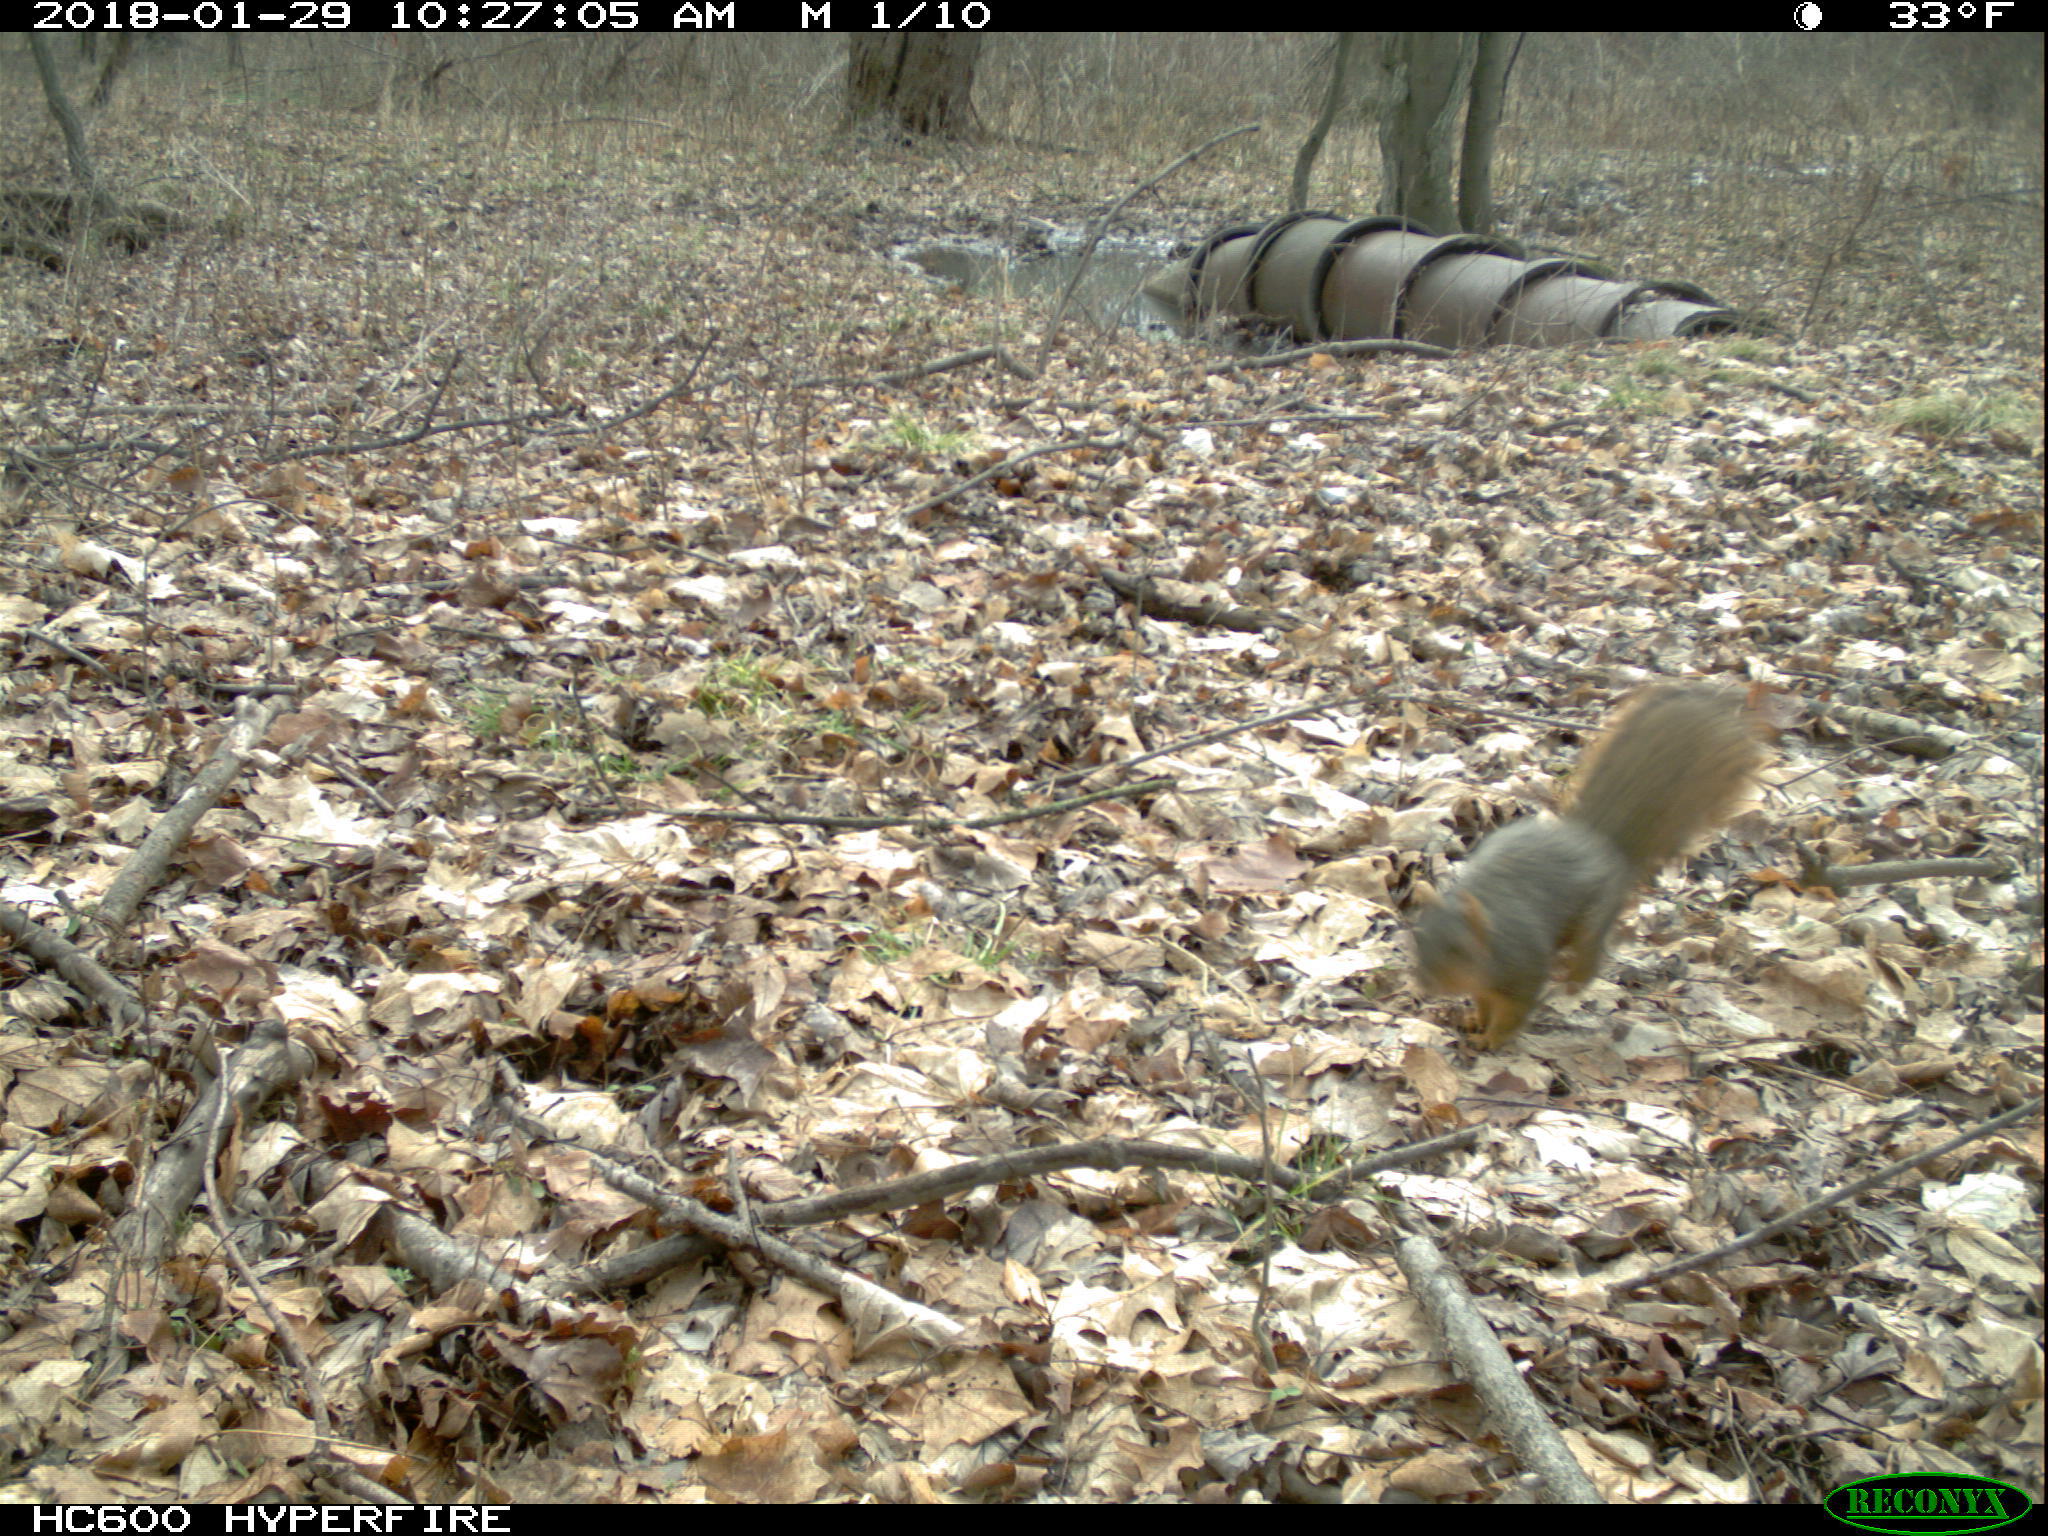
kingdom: Animalia
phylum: Chordata
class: Mammalia
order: Rodentia
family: Sciuridae
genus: Sciurus
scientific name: Sciurus niger
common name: Fox squirrel
